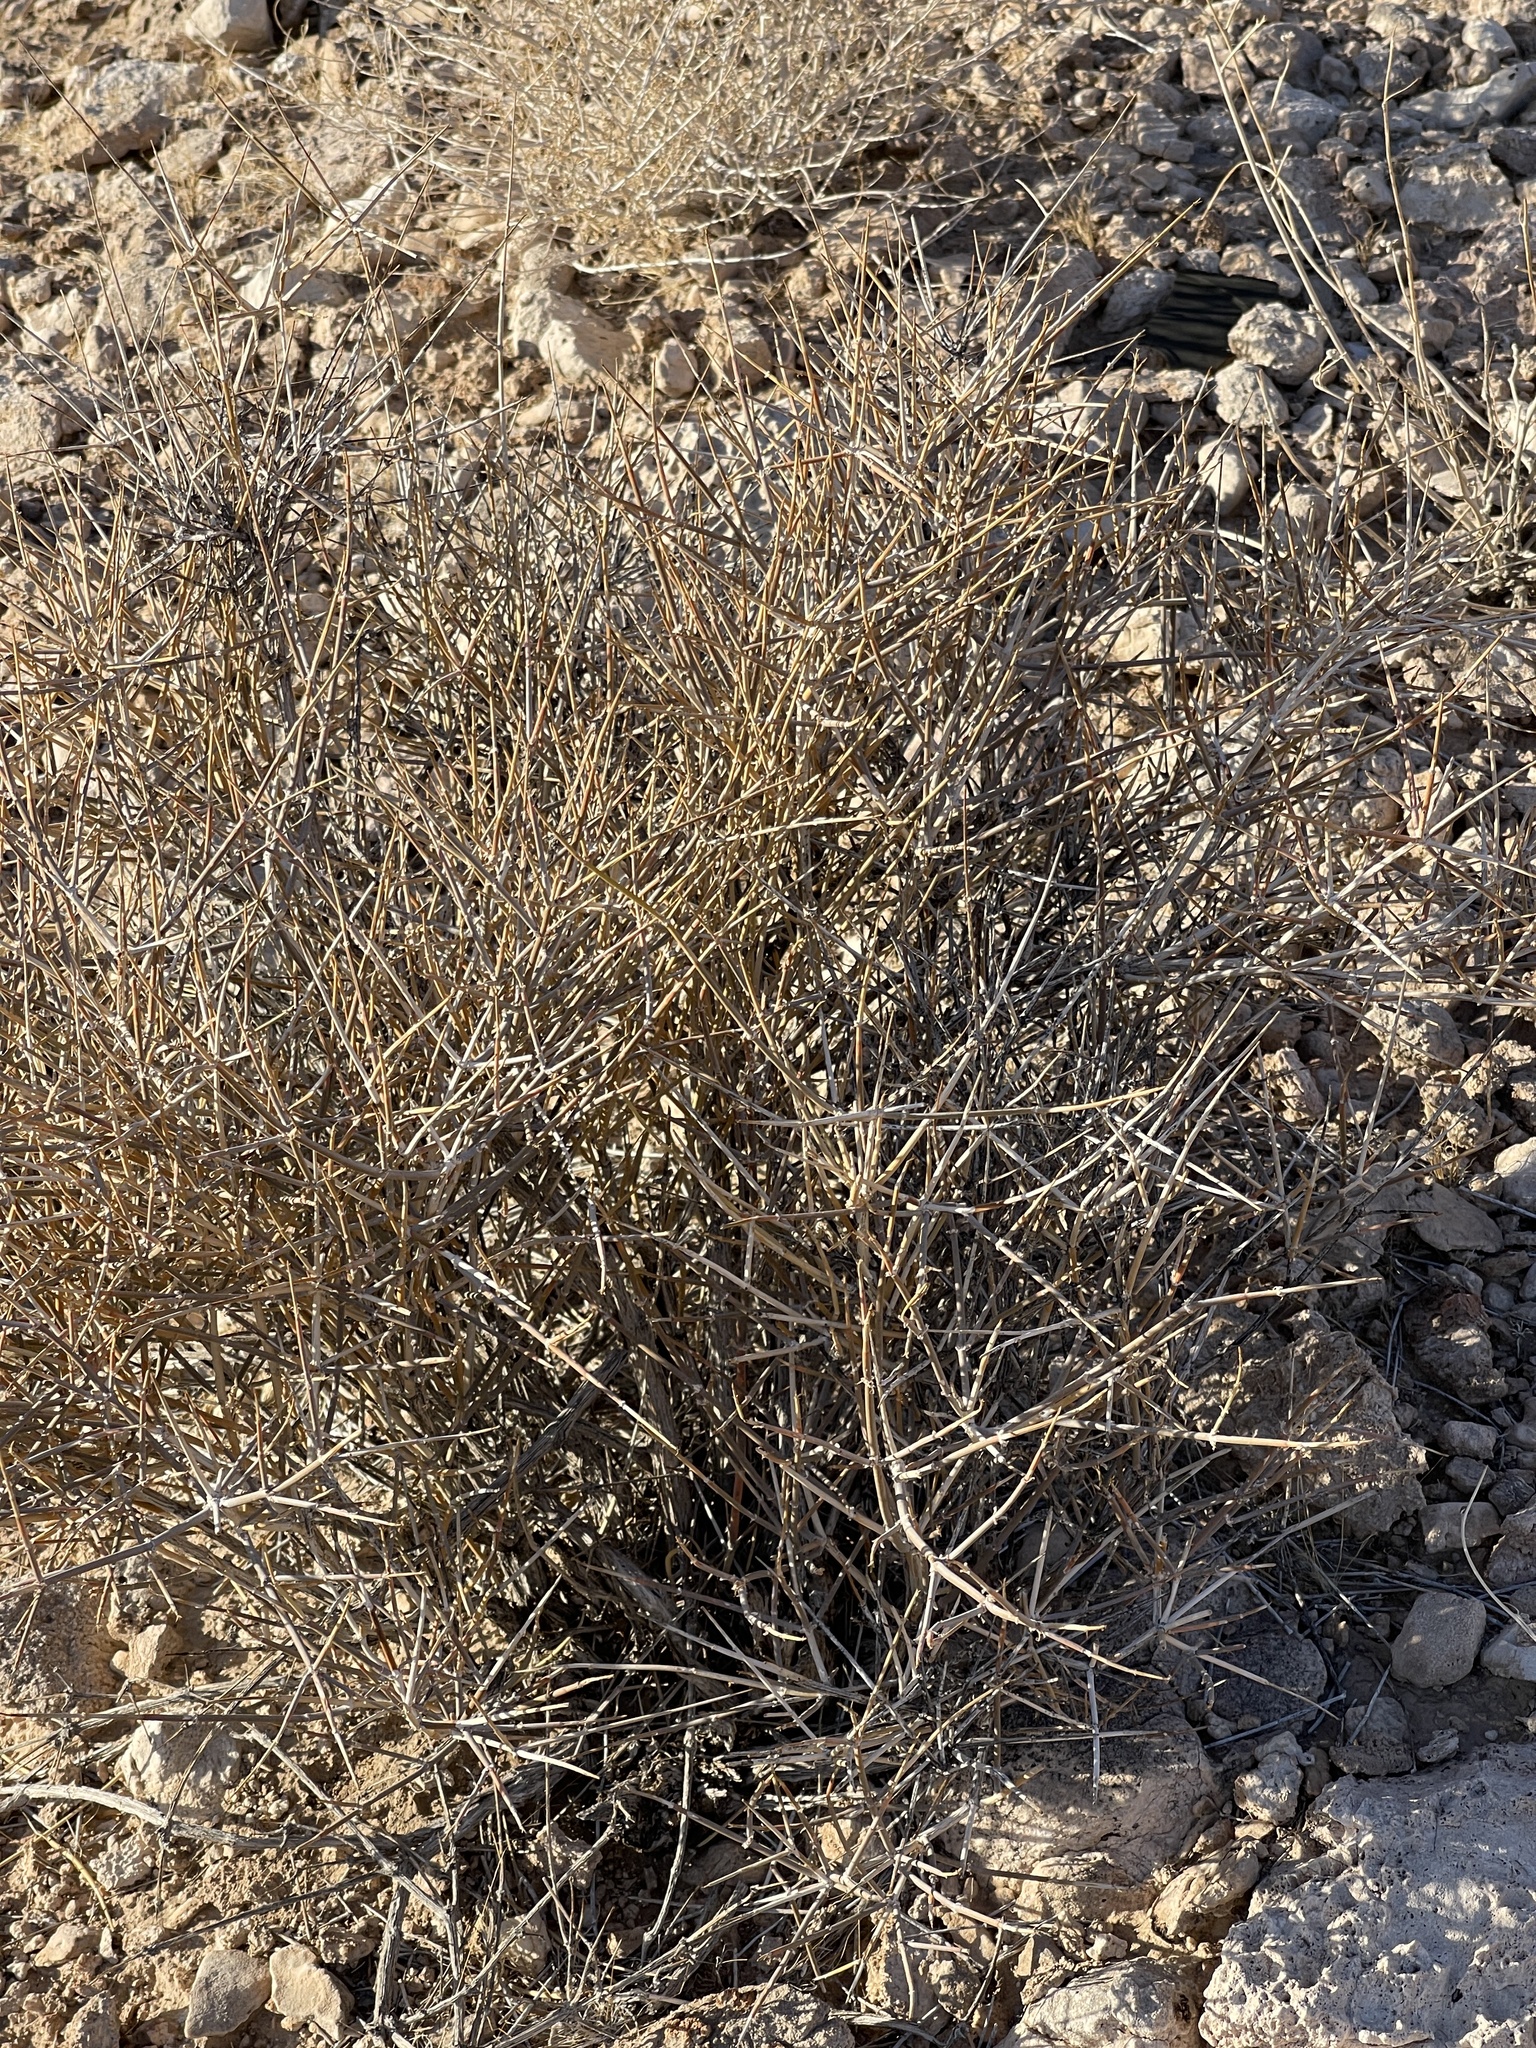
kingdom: Plantae
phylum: Tracheophyta
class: Gnetopsida
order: Ephedrales
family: Ephedraceae
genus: Ephedra
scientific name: Ephedra nevadensis
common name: Gray ephedra
